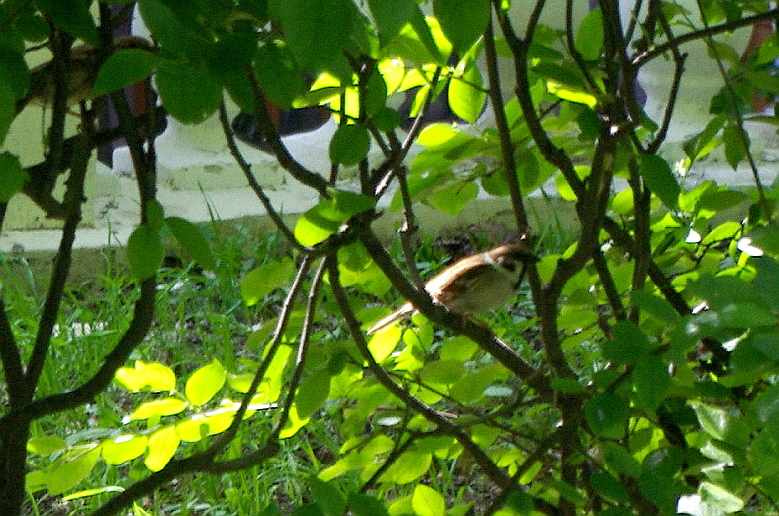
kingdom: Animalia
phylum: Chordata
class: Aves
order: Passeriformes
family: Passeridae
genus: Passer
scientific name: Passer montanus
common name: Eurasian tree sparrow
